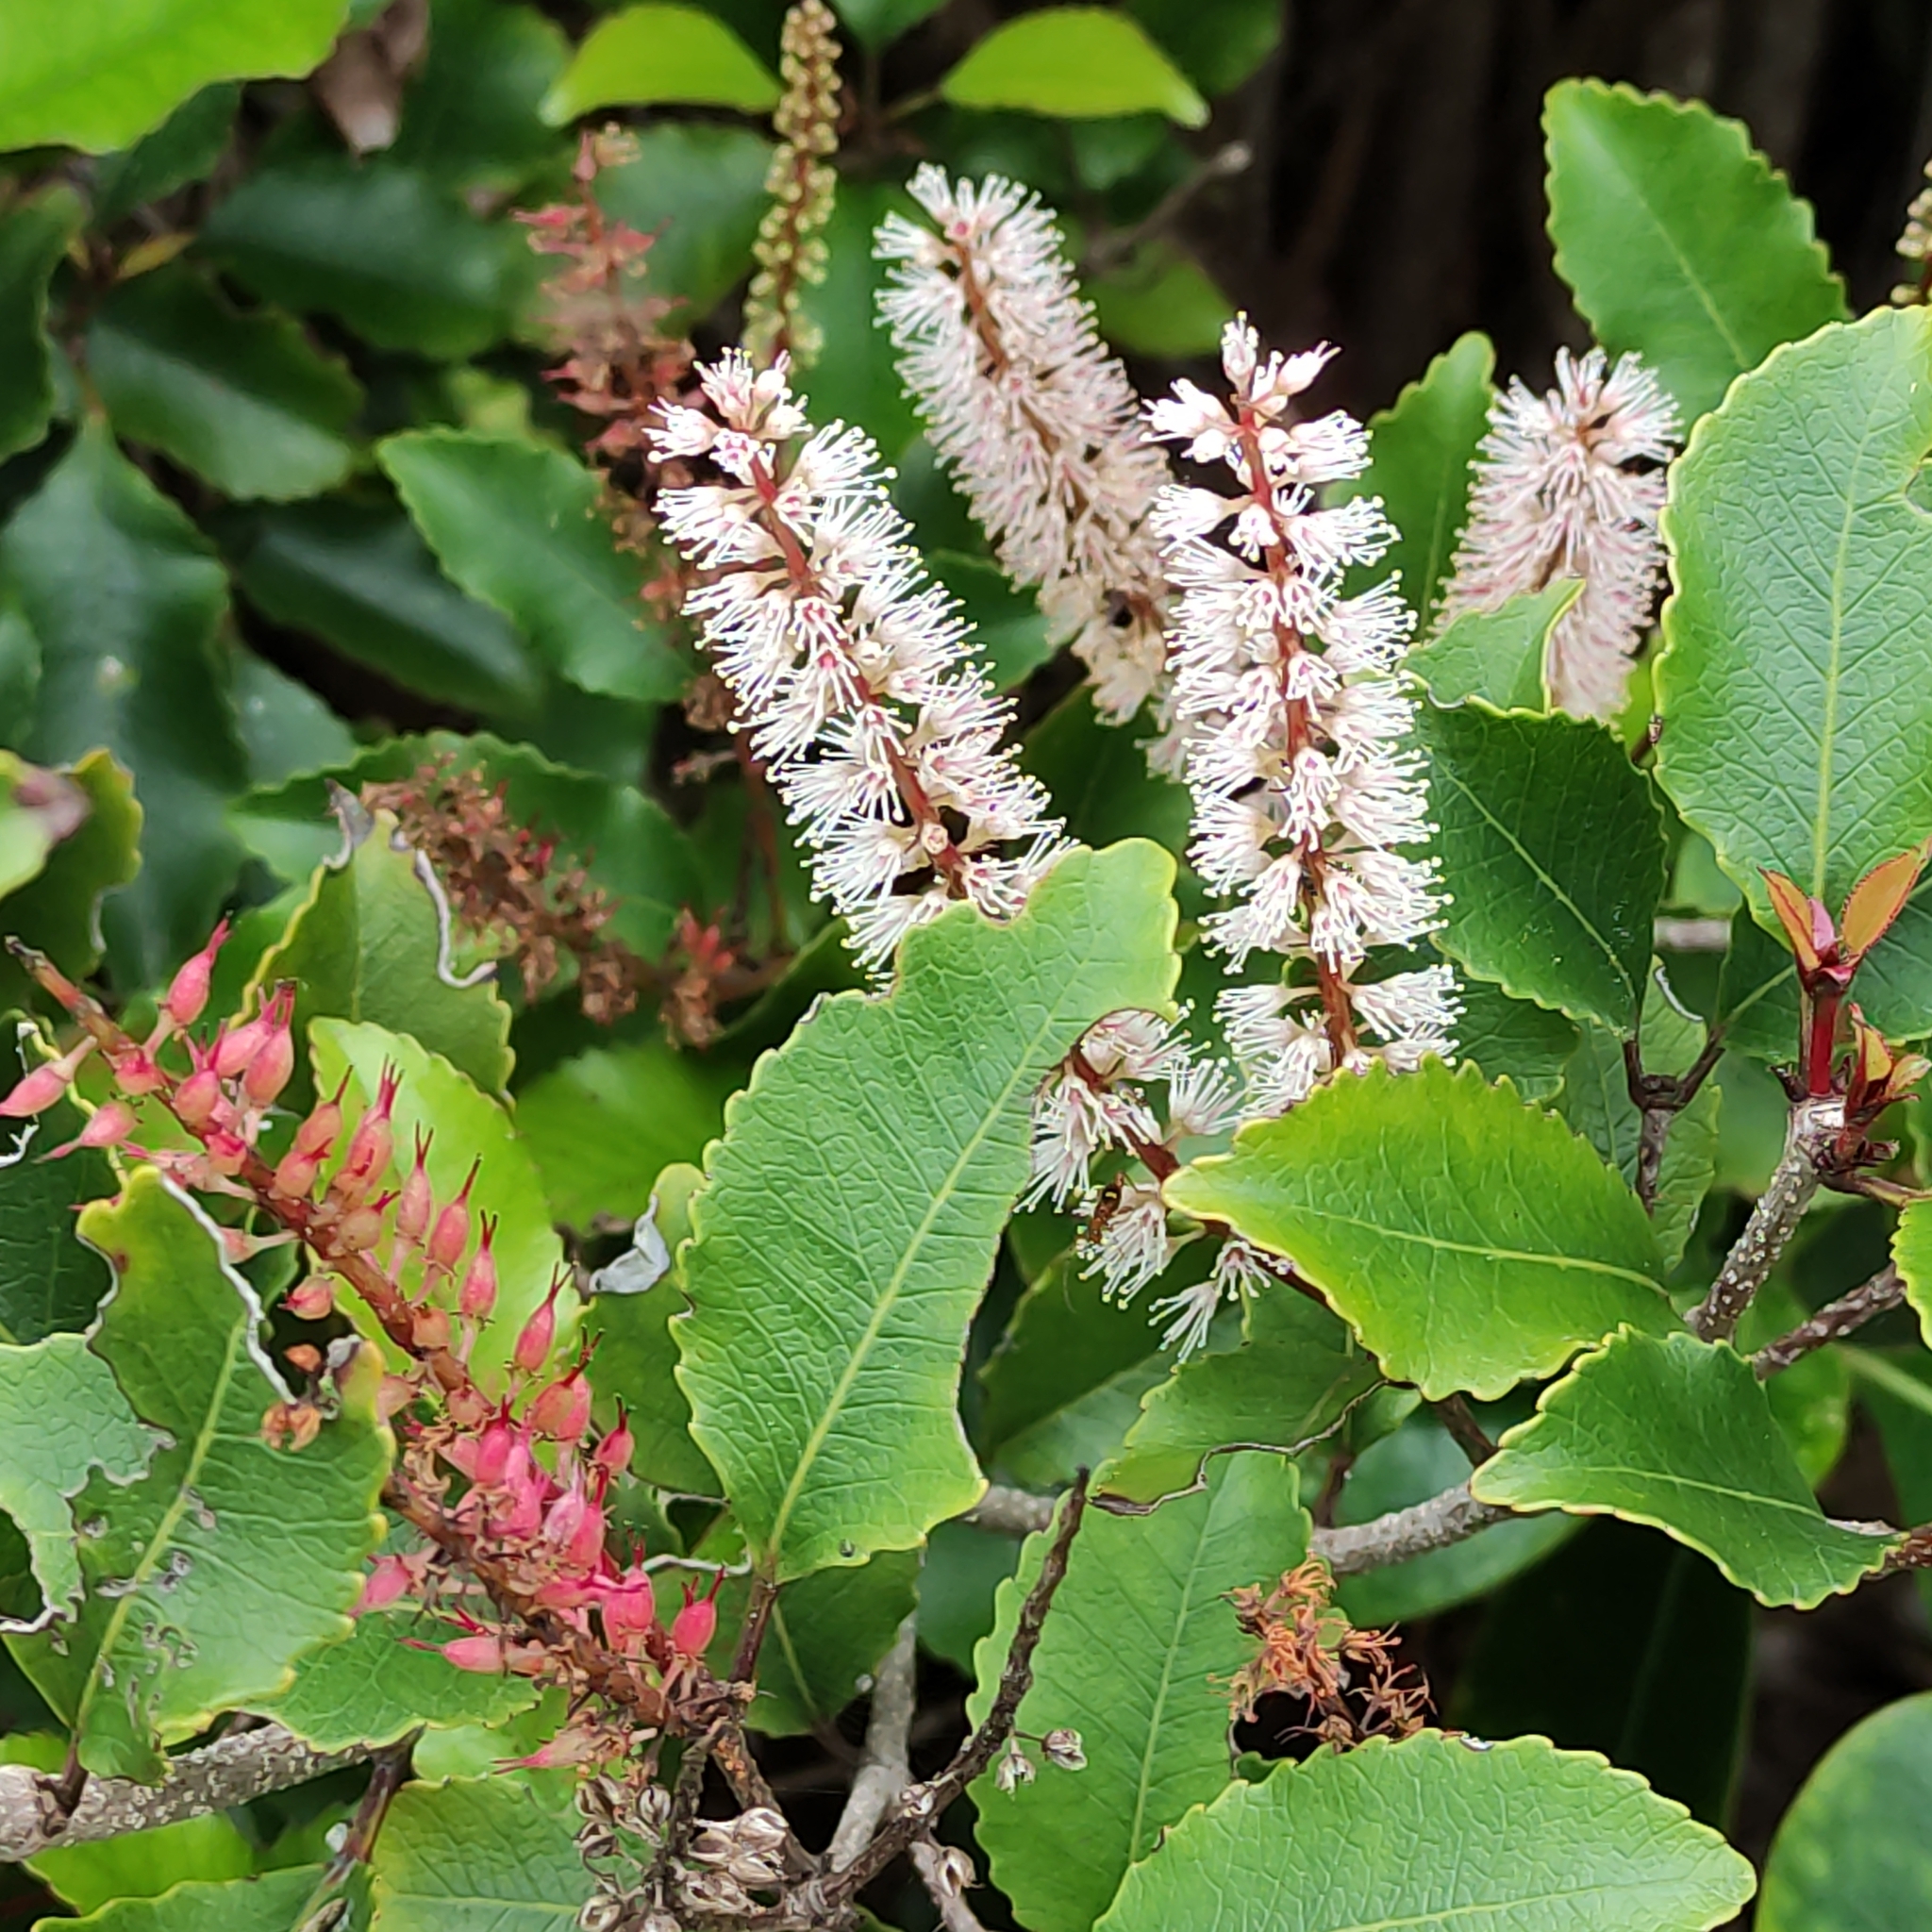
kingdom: Plantae
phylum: Tracheophyta
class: Magnoliopsida
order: Oxalidales
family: Cunoniaceae
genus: Pterophylla
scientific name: Pterophylla racemosa
